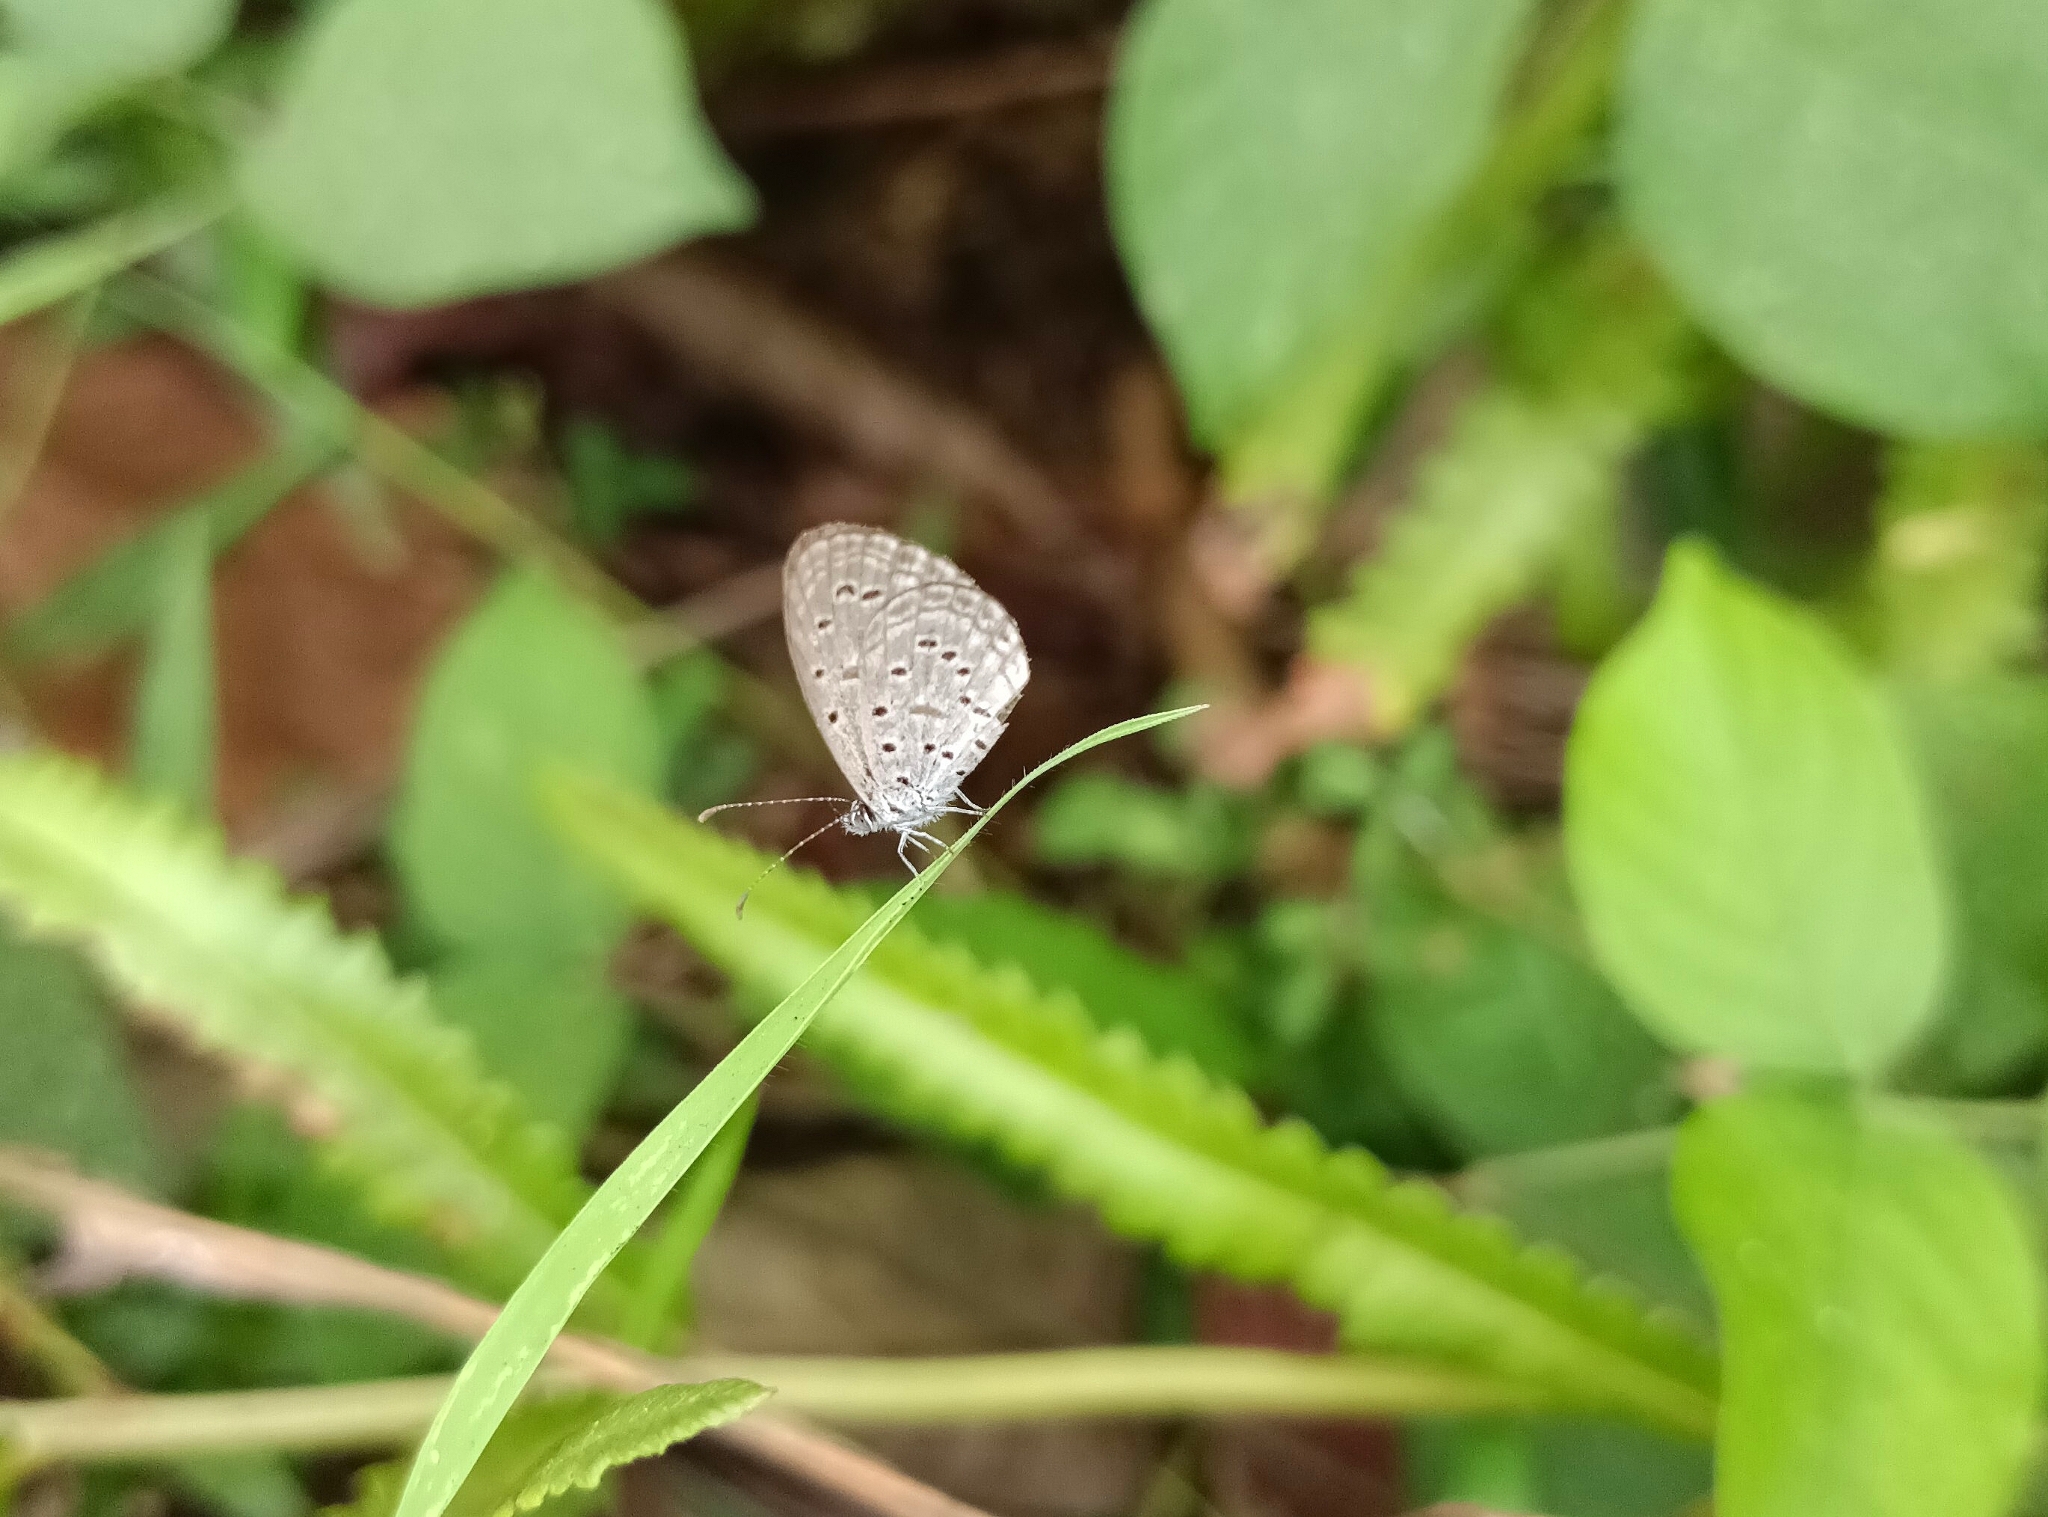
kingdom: Animalia
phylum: Arthropoda
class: Insecta
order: Lepidoptera
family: Lycaenidae
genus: Zizula
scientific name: Zizula hylax
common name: Gaika blue
